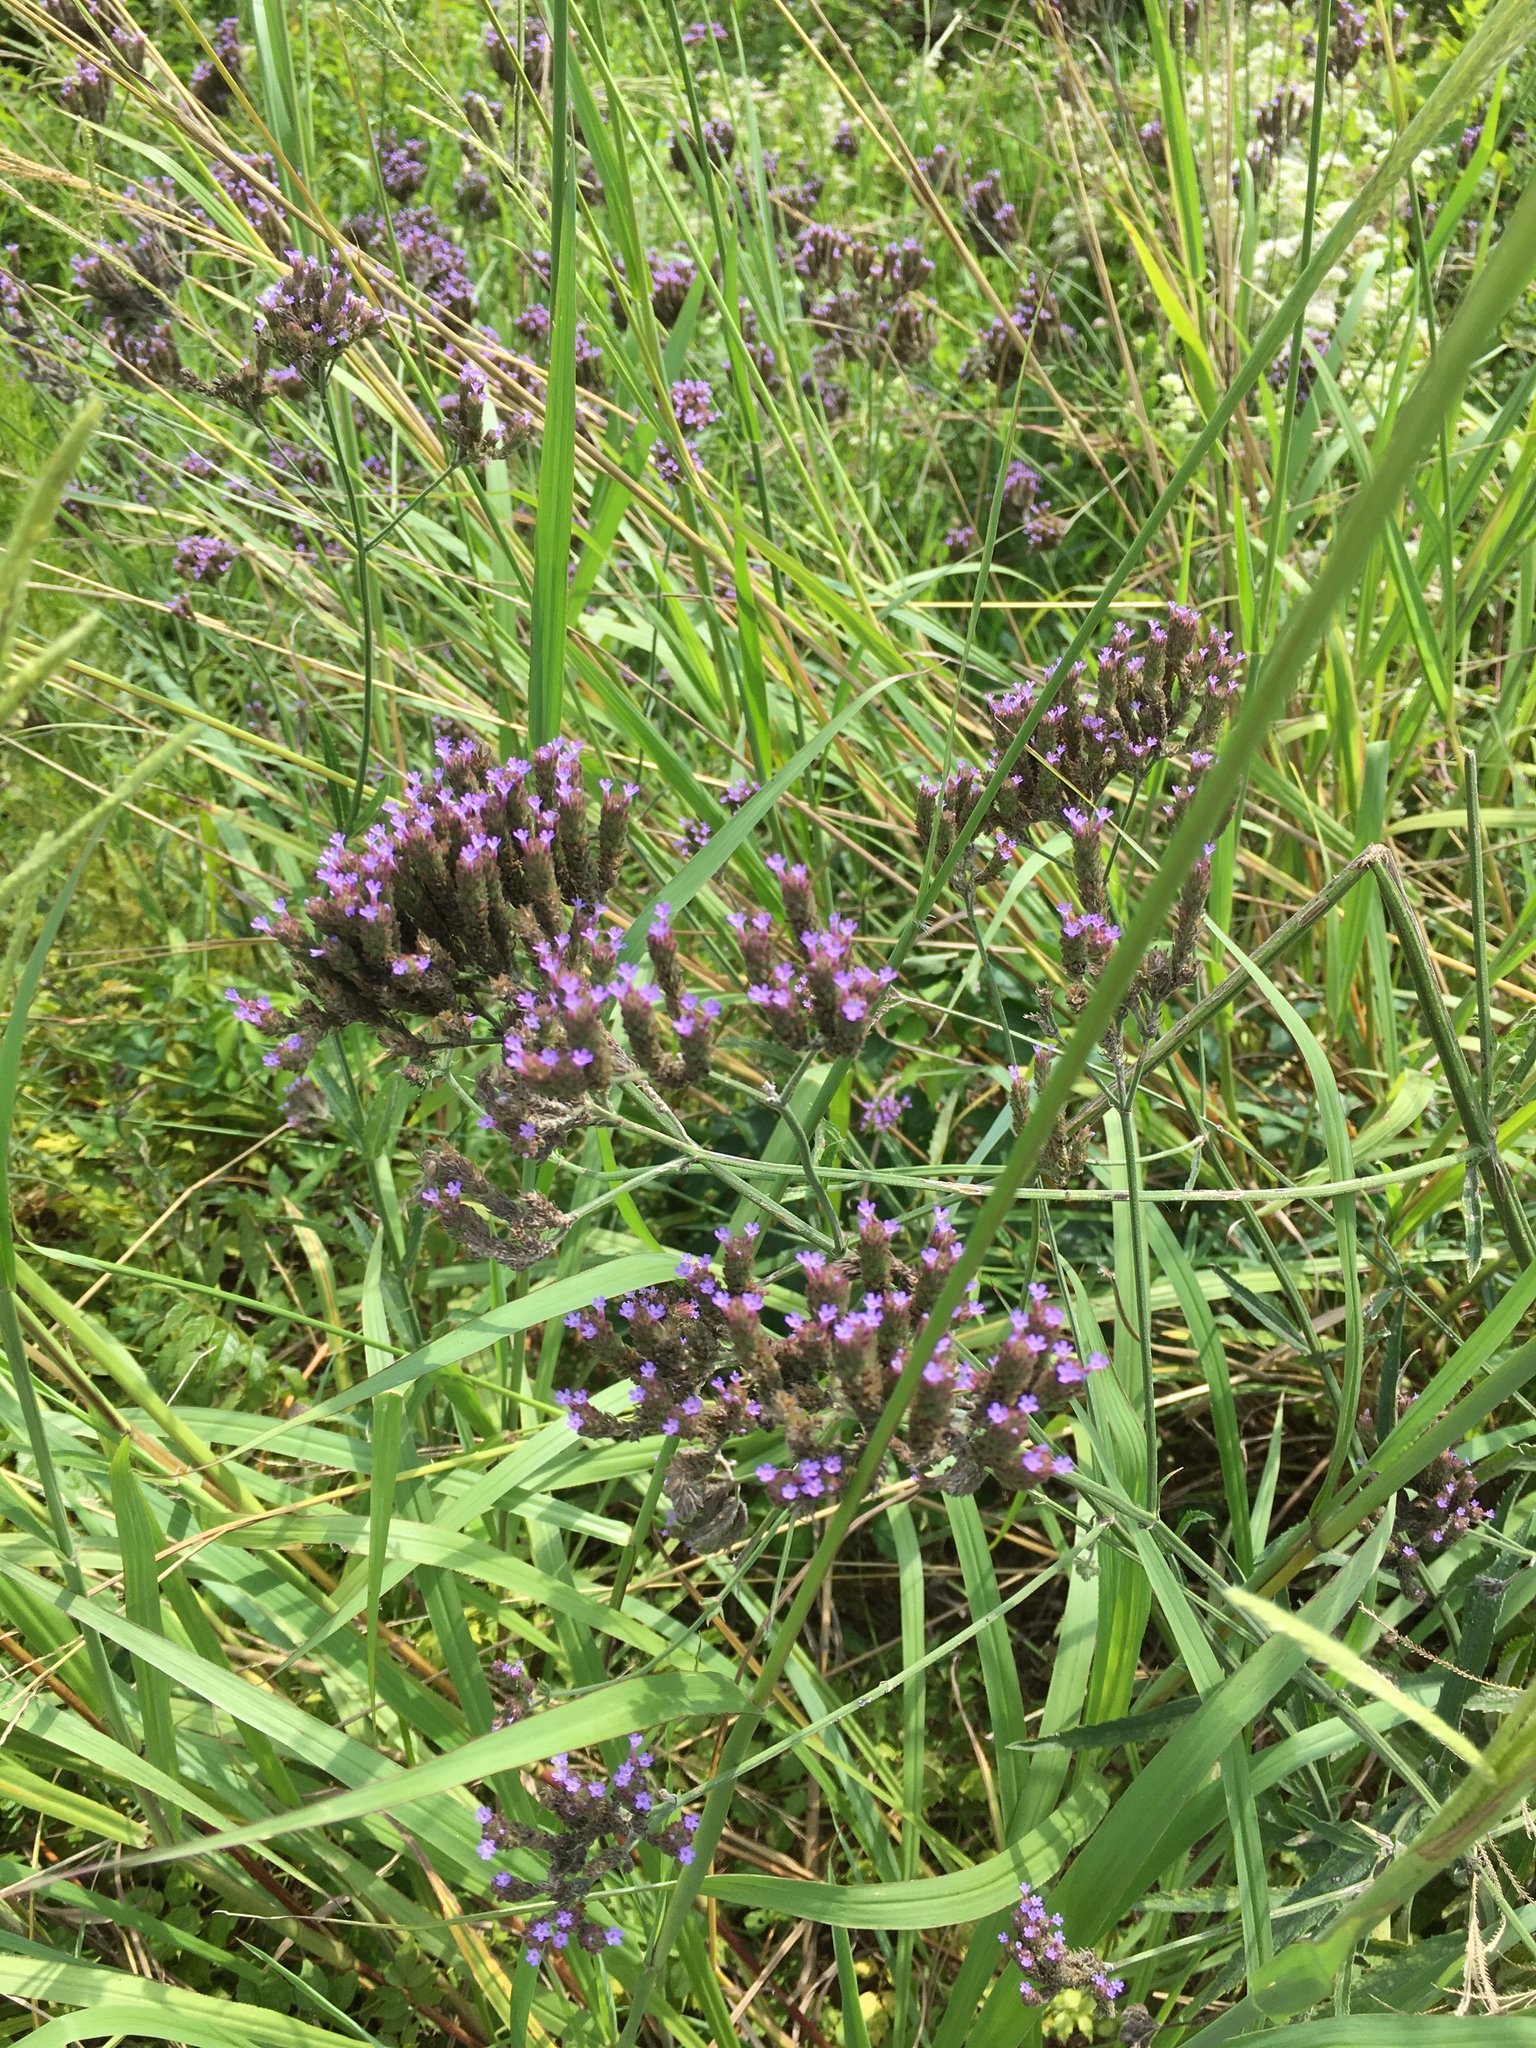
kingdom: Plantae
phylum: Tracheophyta
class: Magnoliopsida
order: Lamiales
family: Verbenaceae
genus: Verbena
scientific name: Verbena brasiliensis
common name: Brazilian vervain
